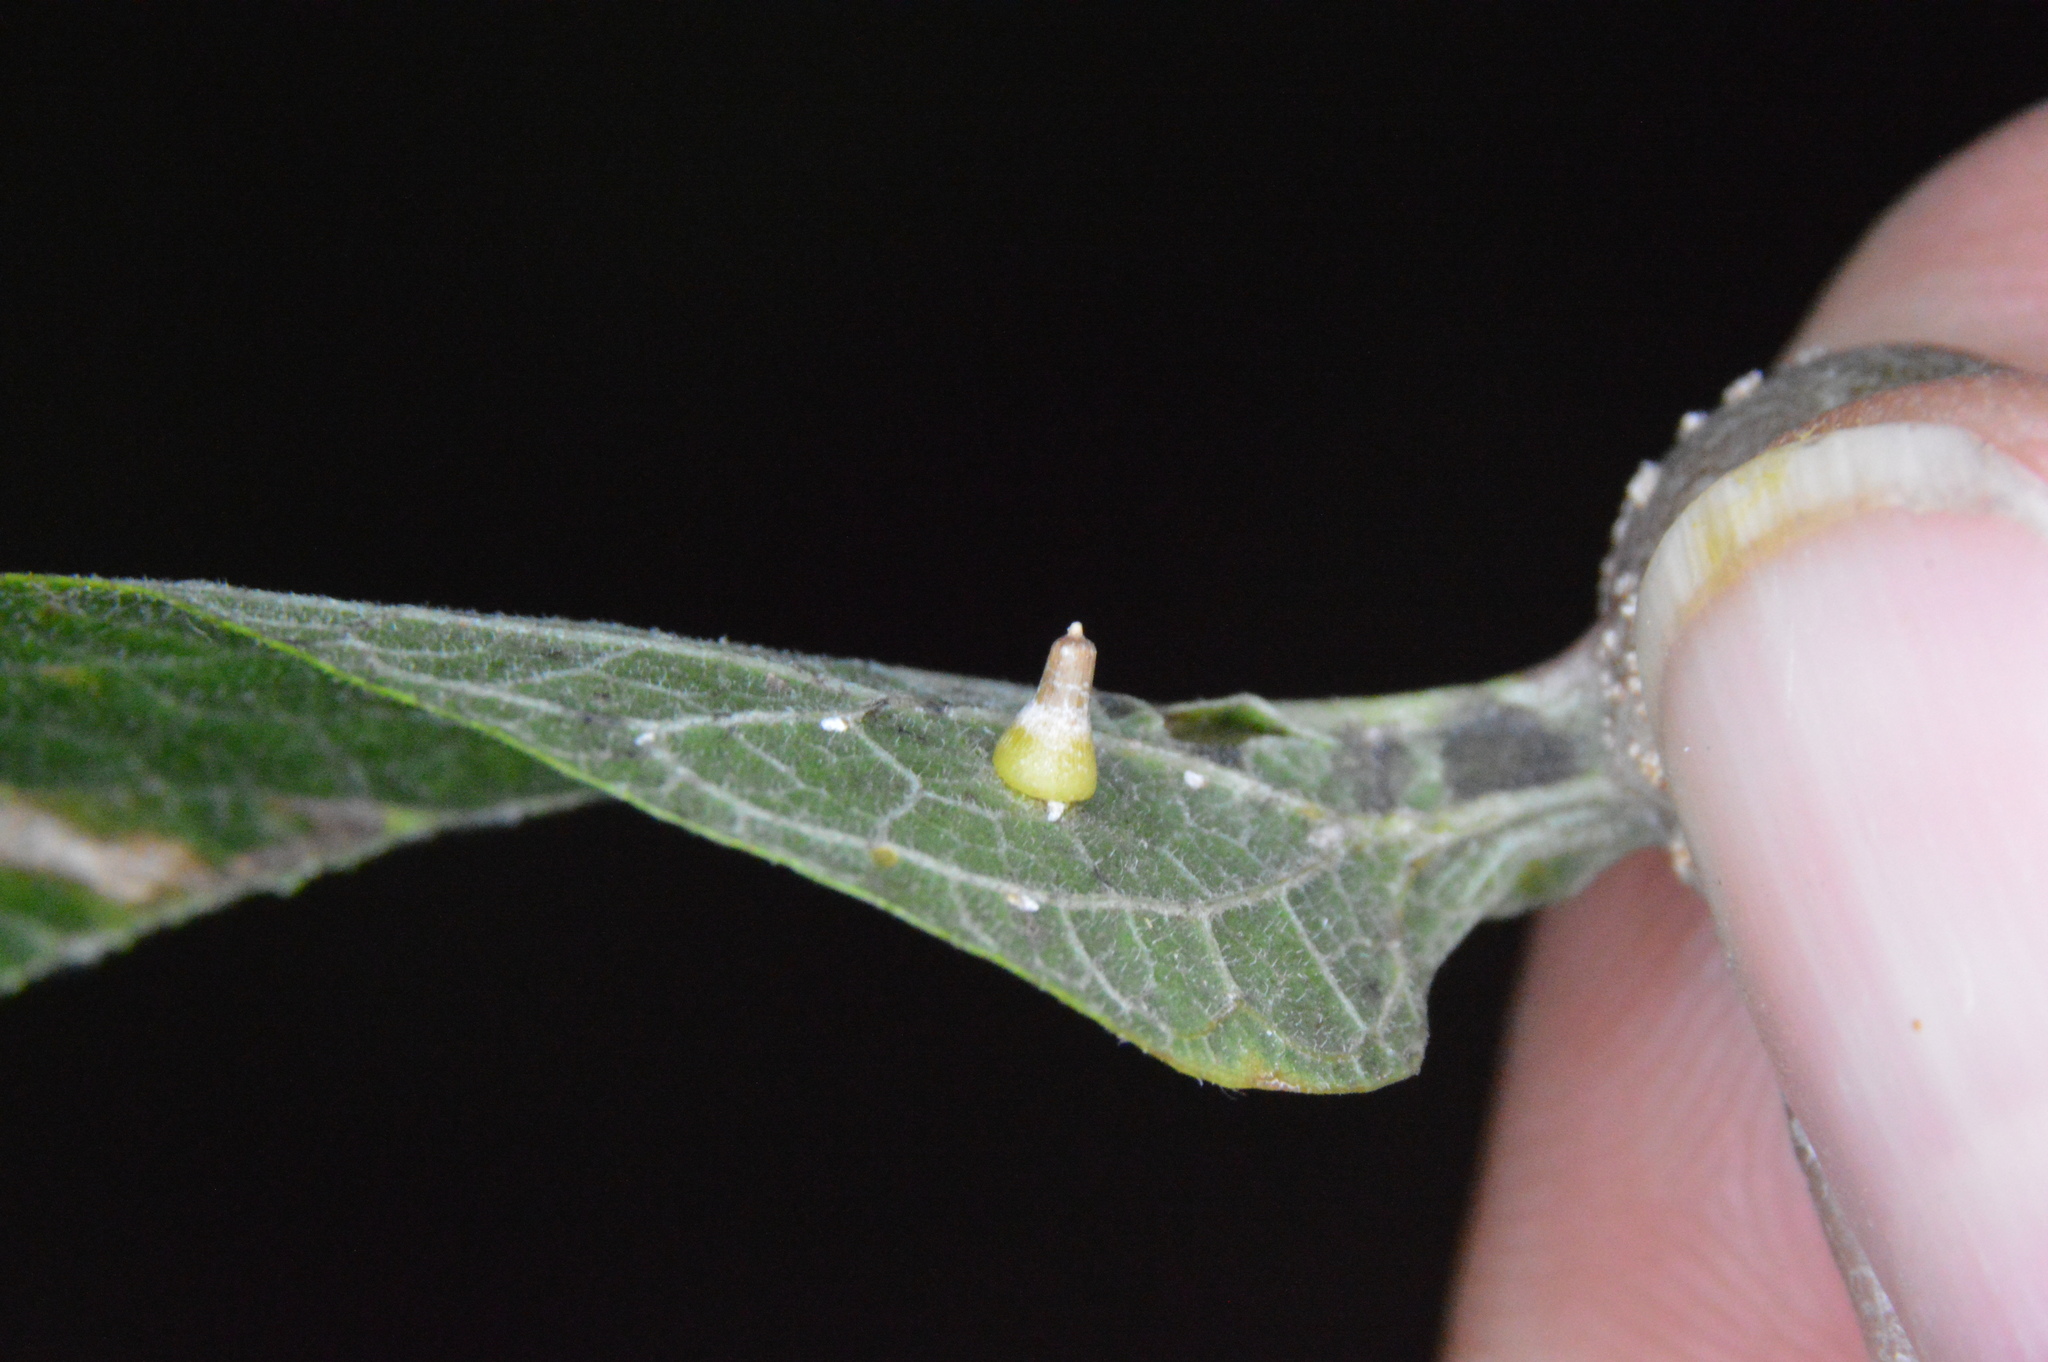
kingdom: Animalia
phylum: Arthropoda
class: Insecta
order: Diptera
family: Cecidomyiidae
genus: Celticecis
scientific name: Celticecis aciculata
